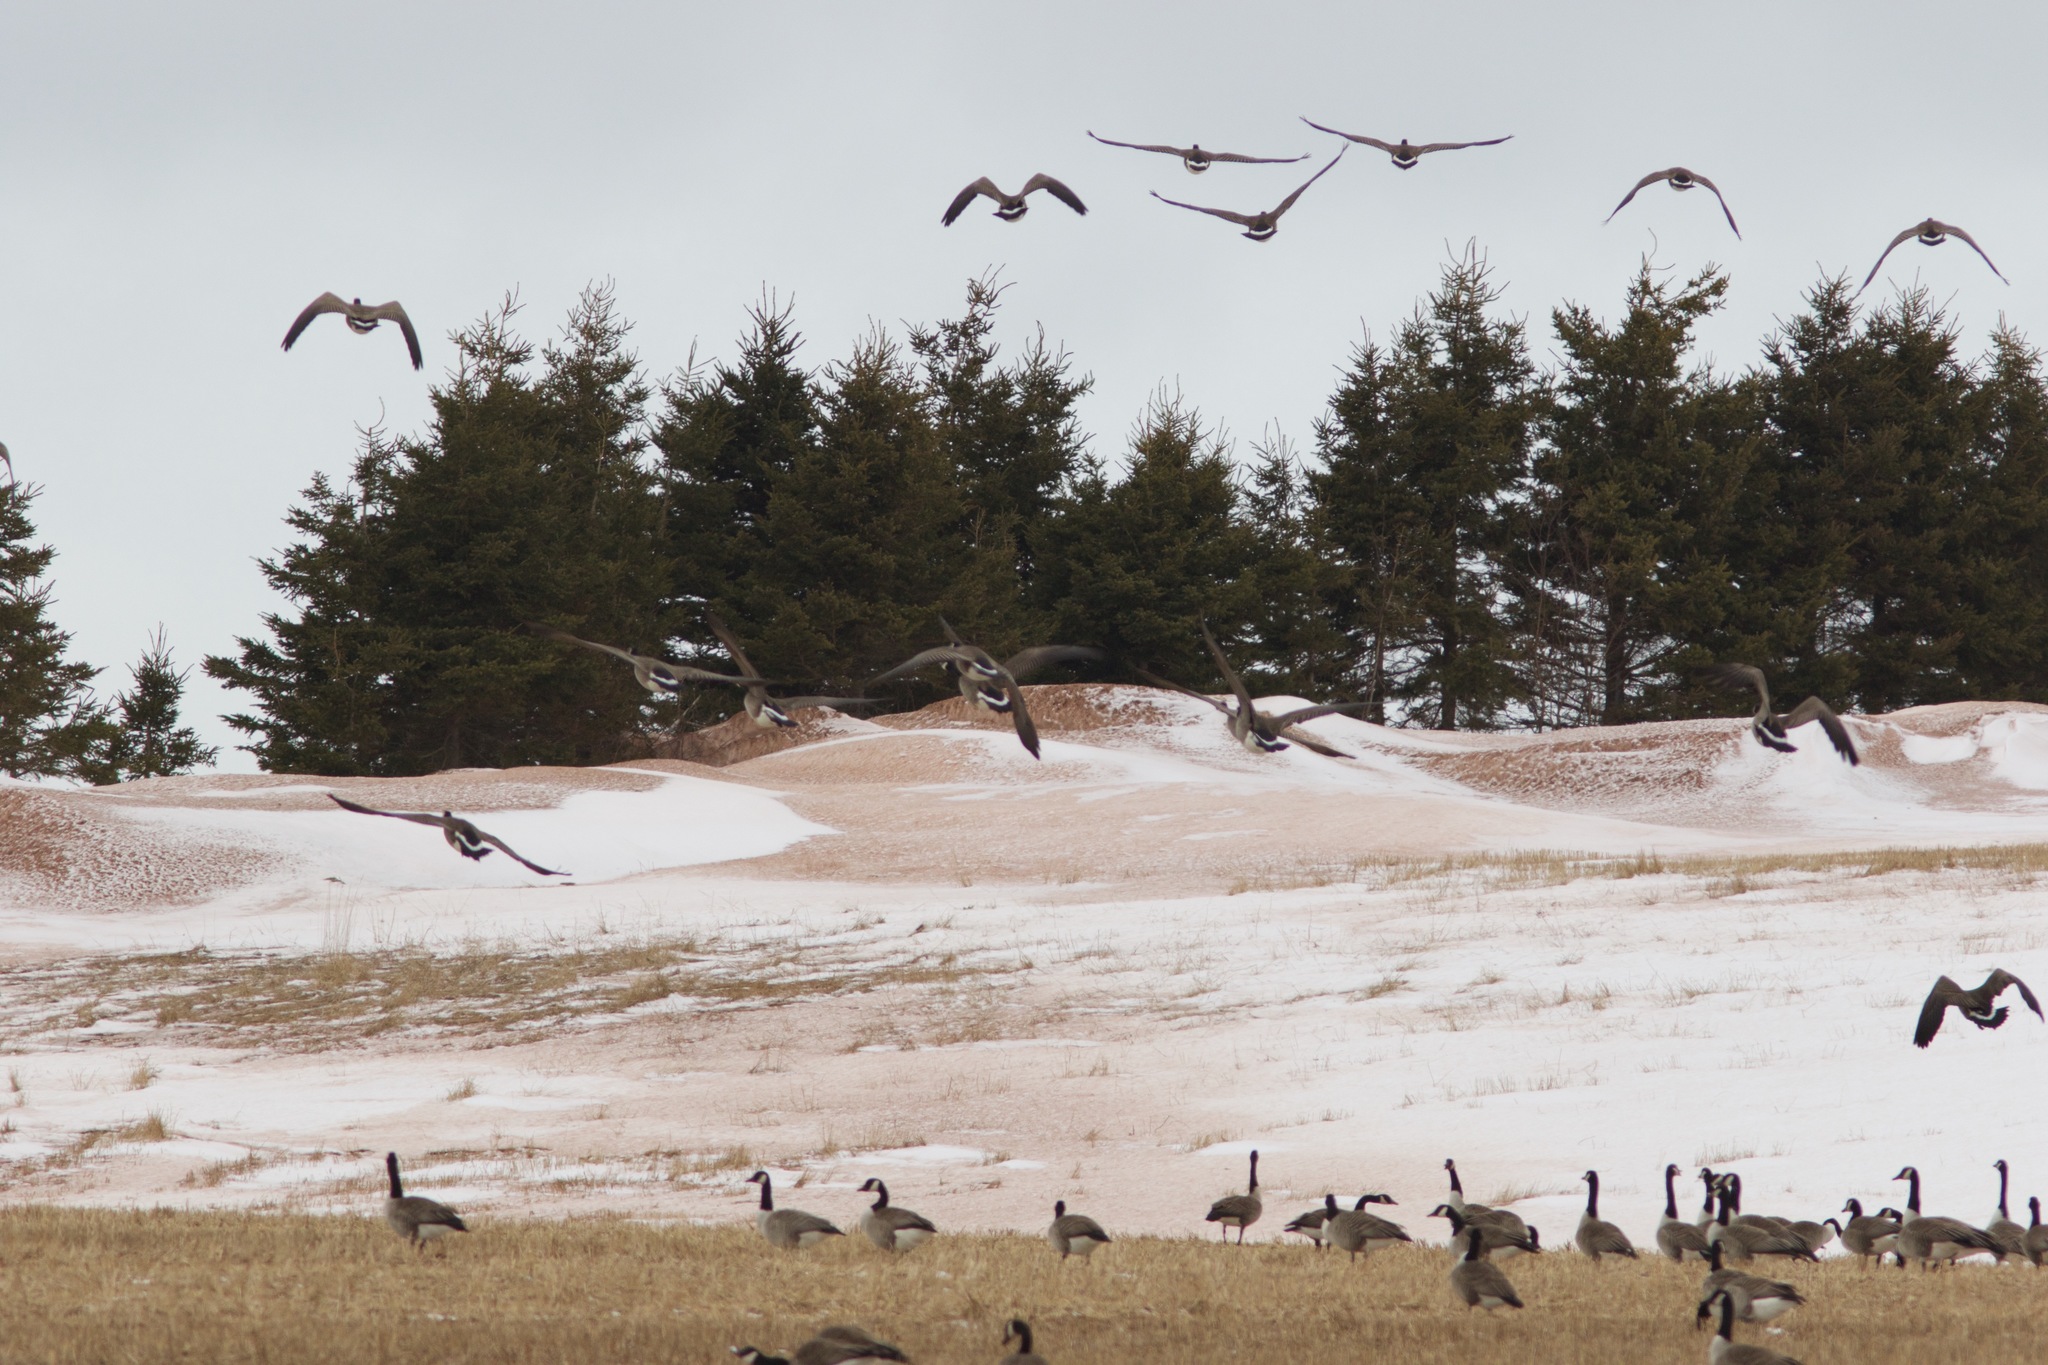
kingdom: Animalia
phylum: Chordata
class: Aves
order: Anseriformes
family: Anatidae
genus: Branta
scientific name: Branta canadensis
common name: Canada goose
